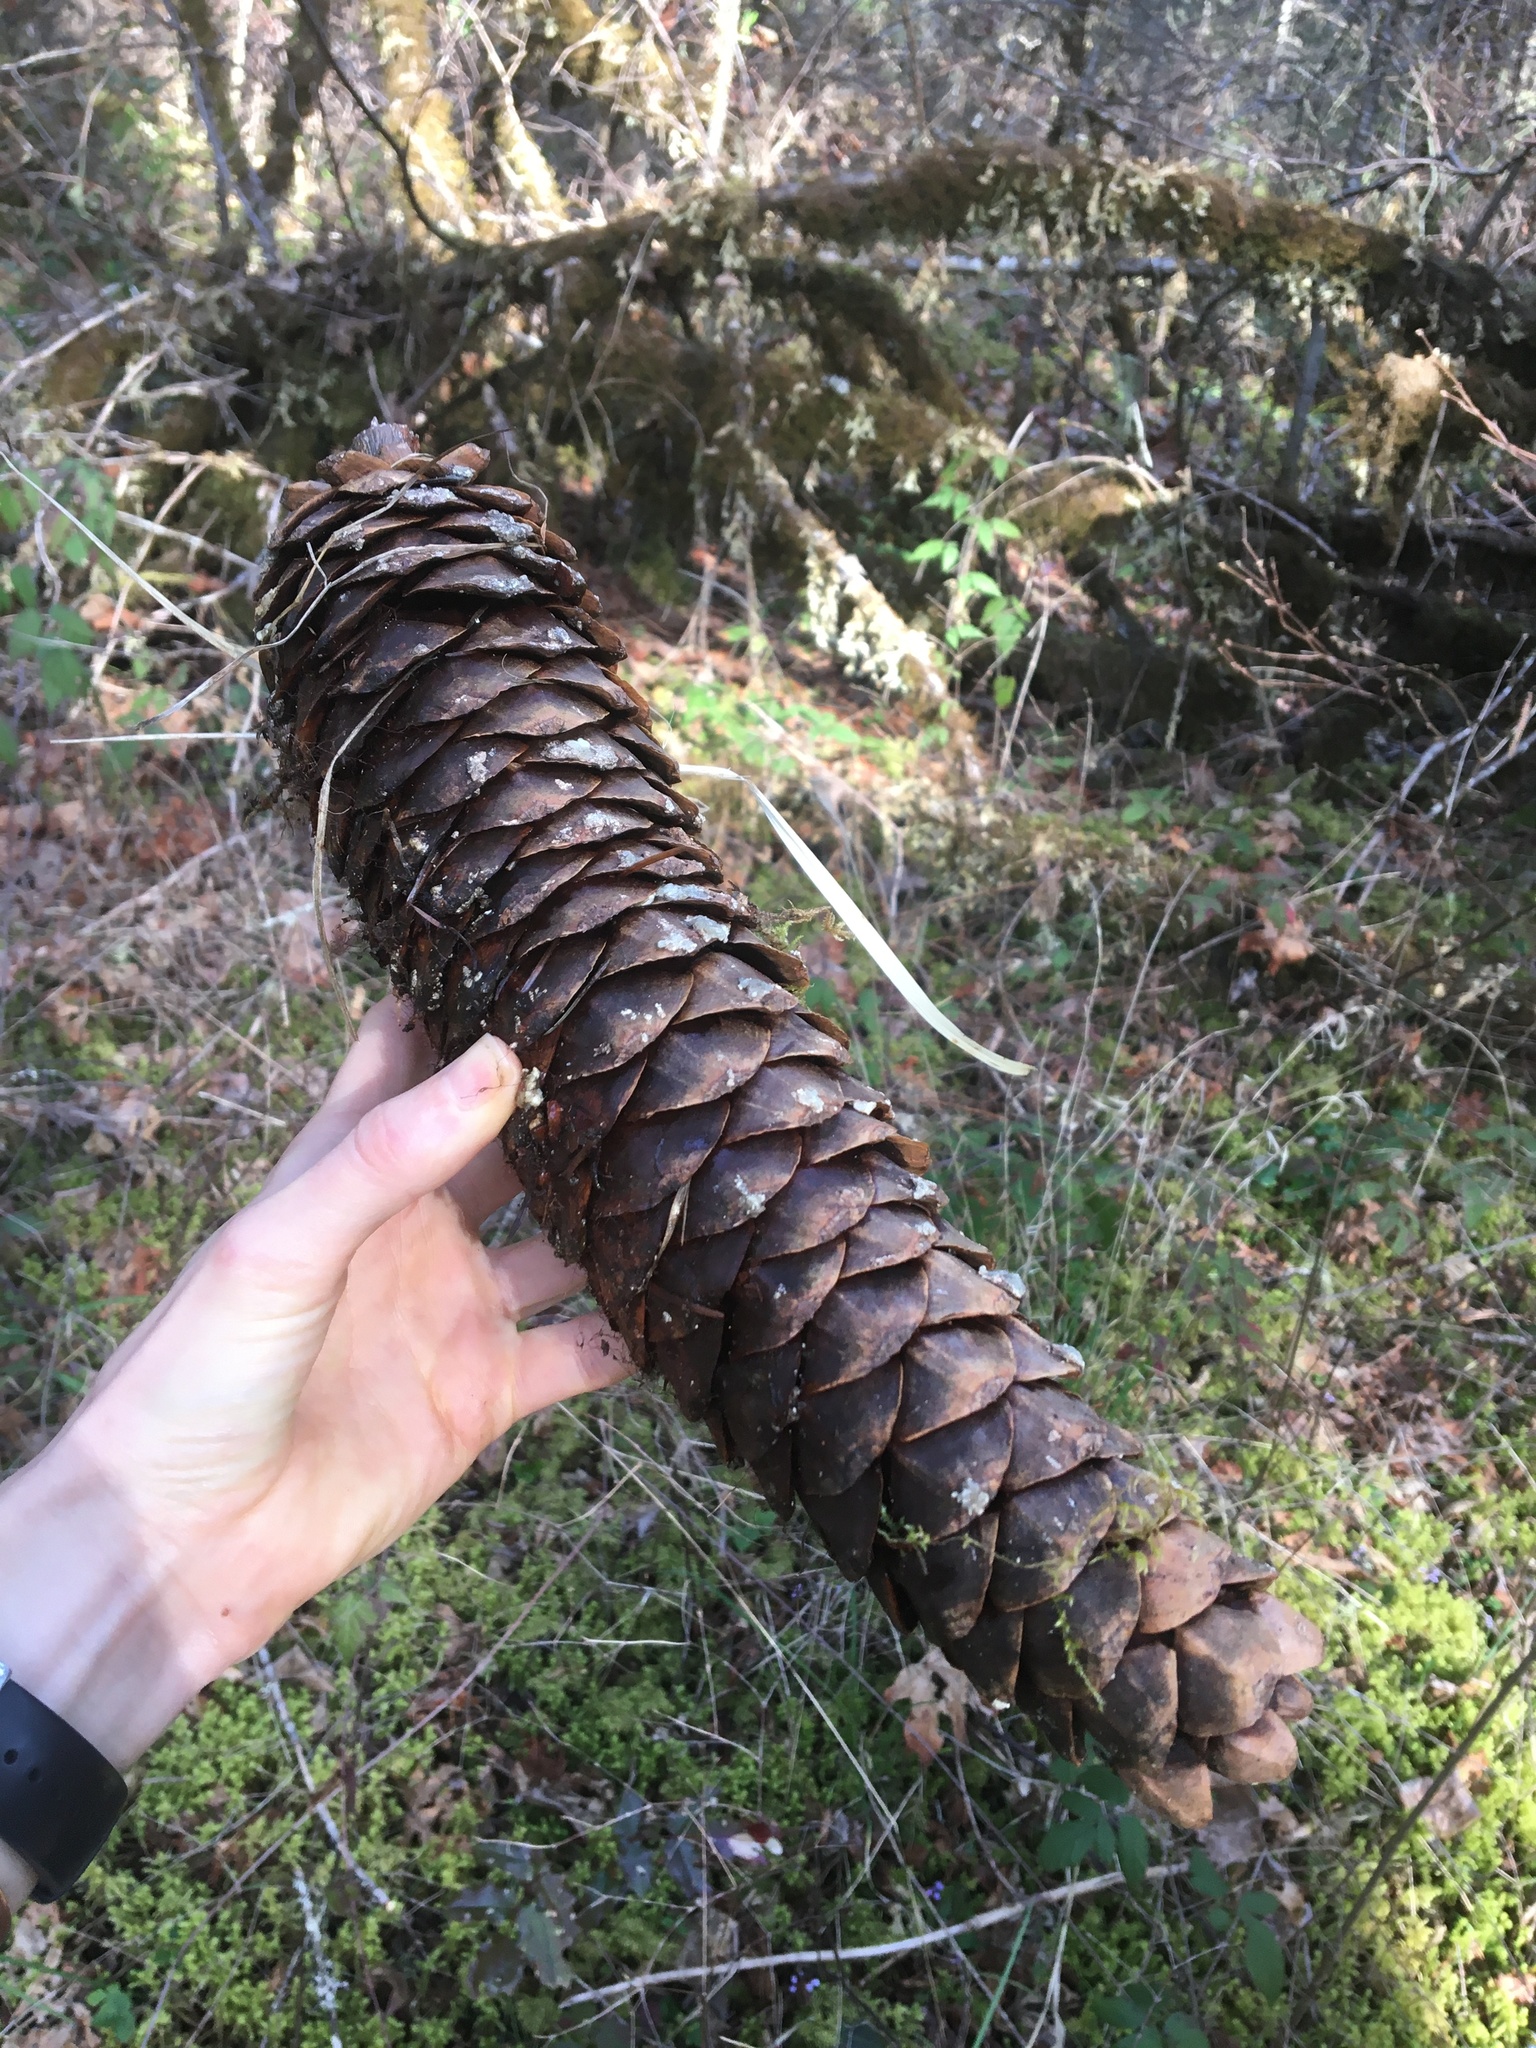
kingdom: Plantae
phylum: Tracheophyta
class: Pinopsida
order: Pinales
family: Pinaceae
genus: Pinus
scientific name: Pinus lambertiana
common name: Sugar pine
